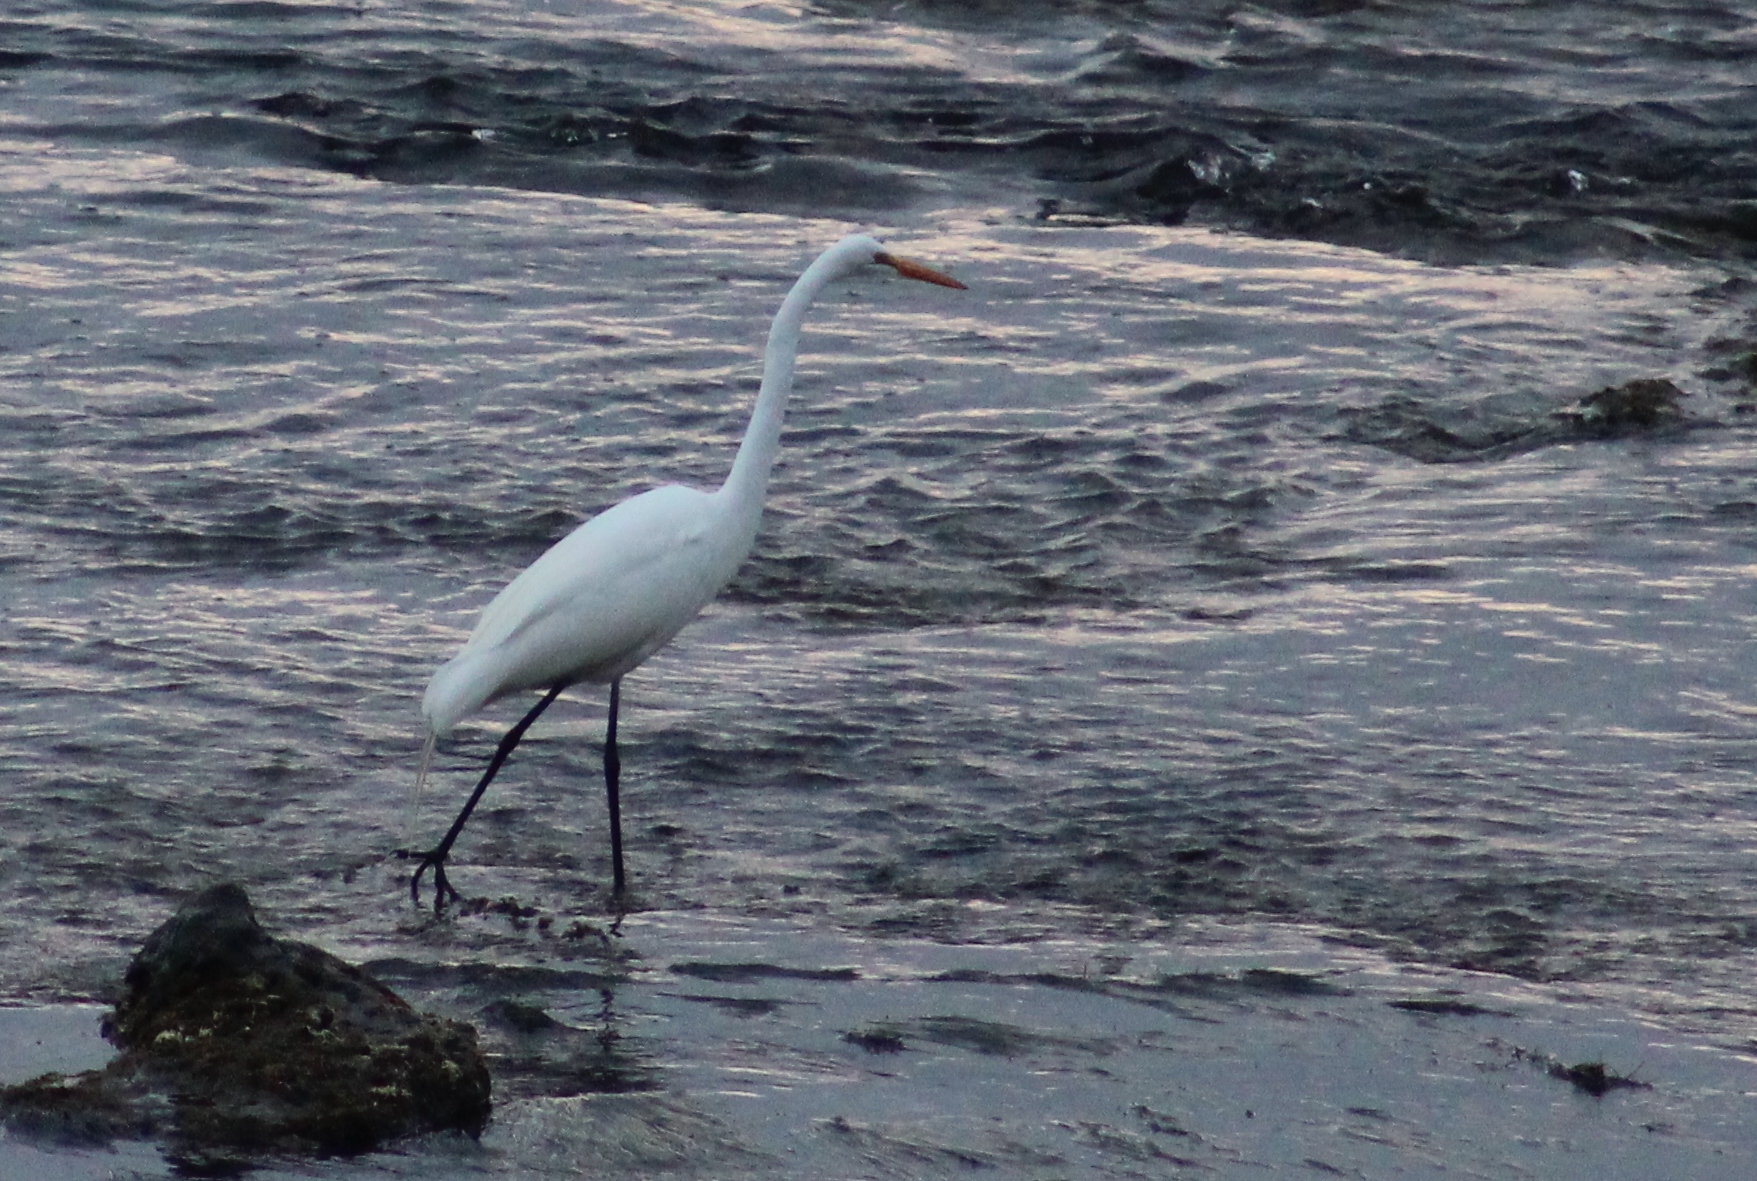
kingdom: Animalia
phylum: Chordata
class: Aves
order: Pelecaniformes
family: Ardeidae
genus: Ardea
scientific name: Ardea alba
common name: Great egret
